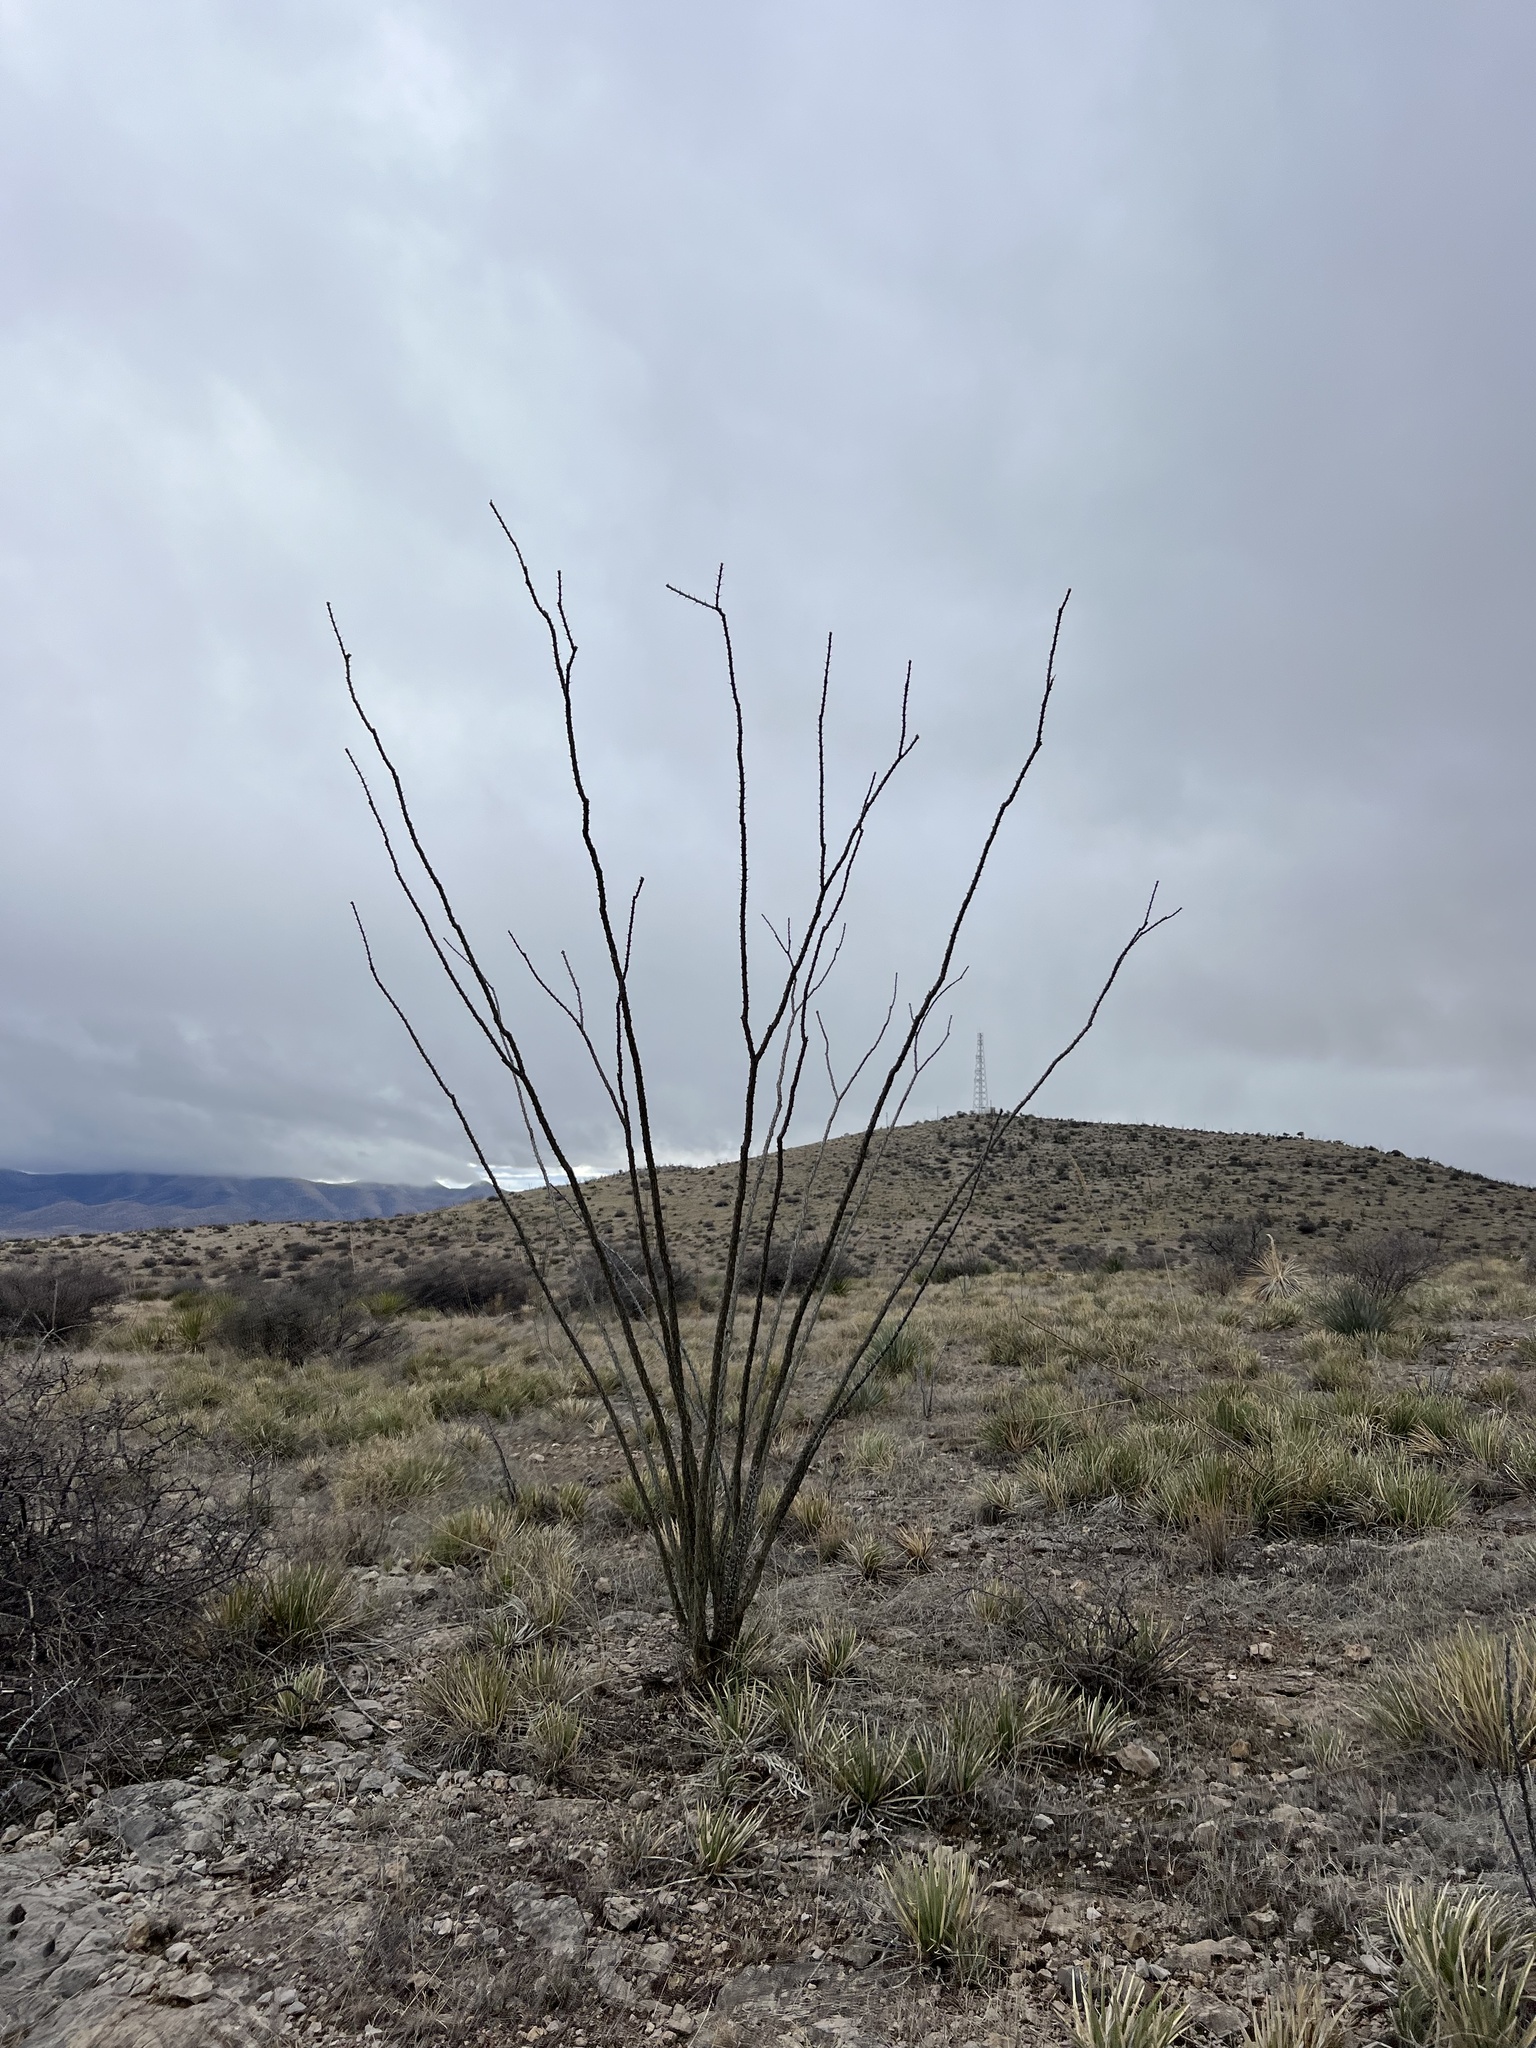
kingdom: Plantae
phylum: Tracheophyta
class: Magnoliopsida
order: Ericales
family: Fouquieriaceae
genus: Fouquieria
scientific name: Fouquieria splendens
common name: Vine-cactus
